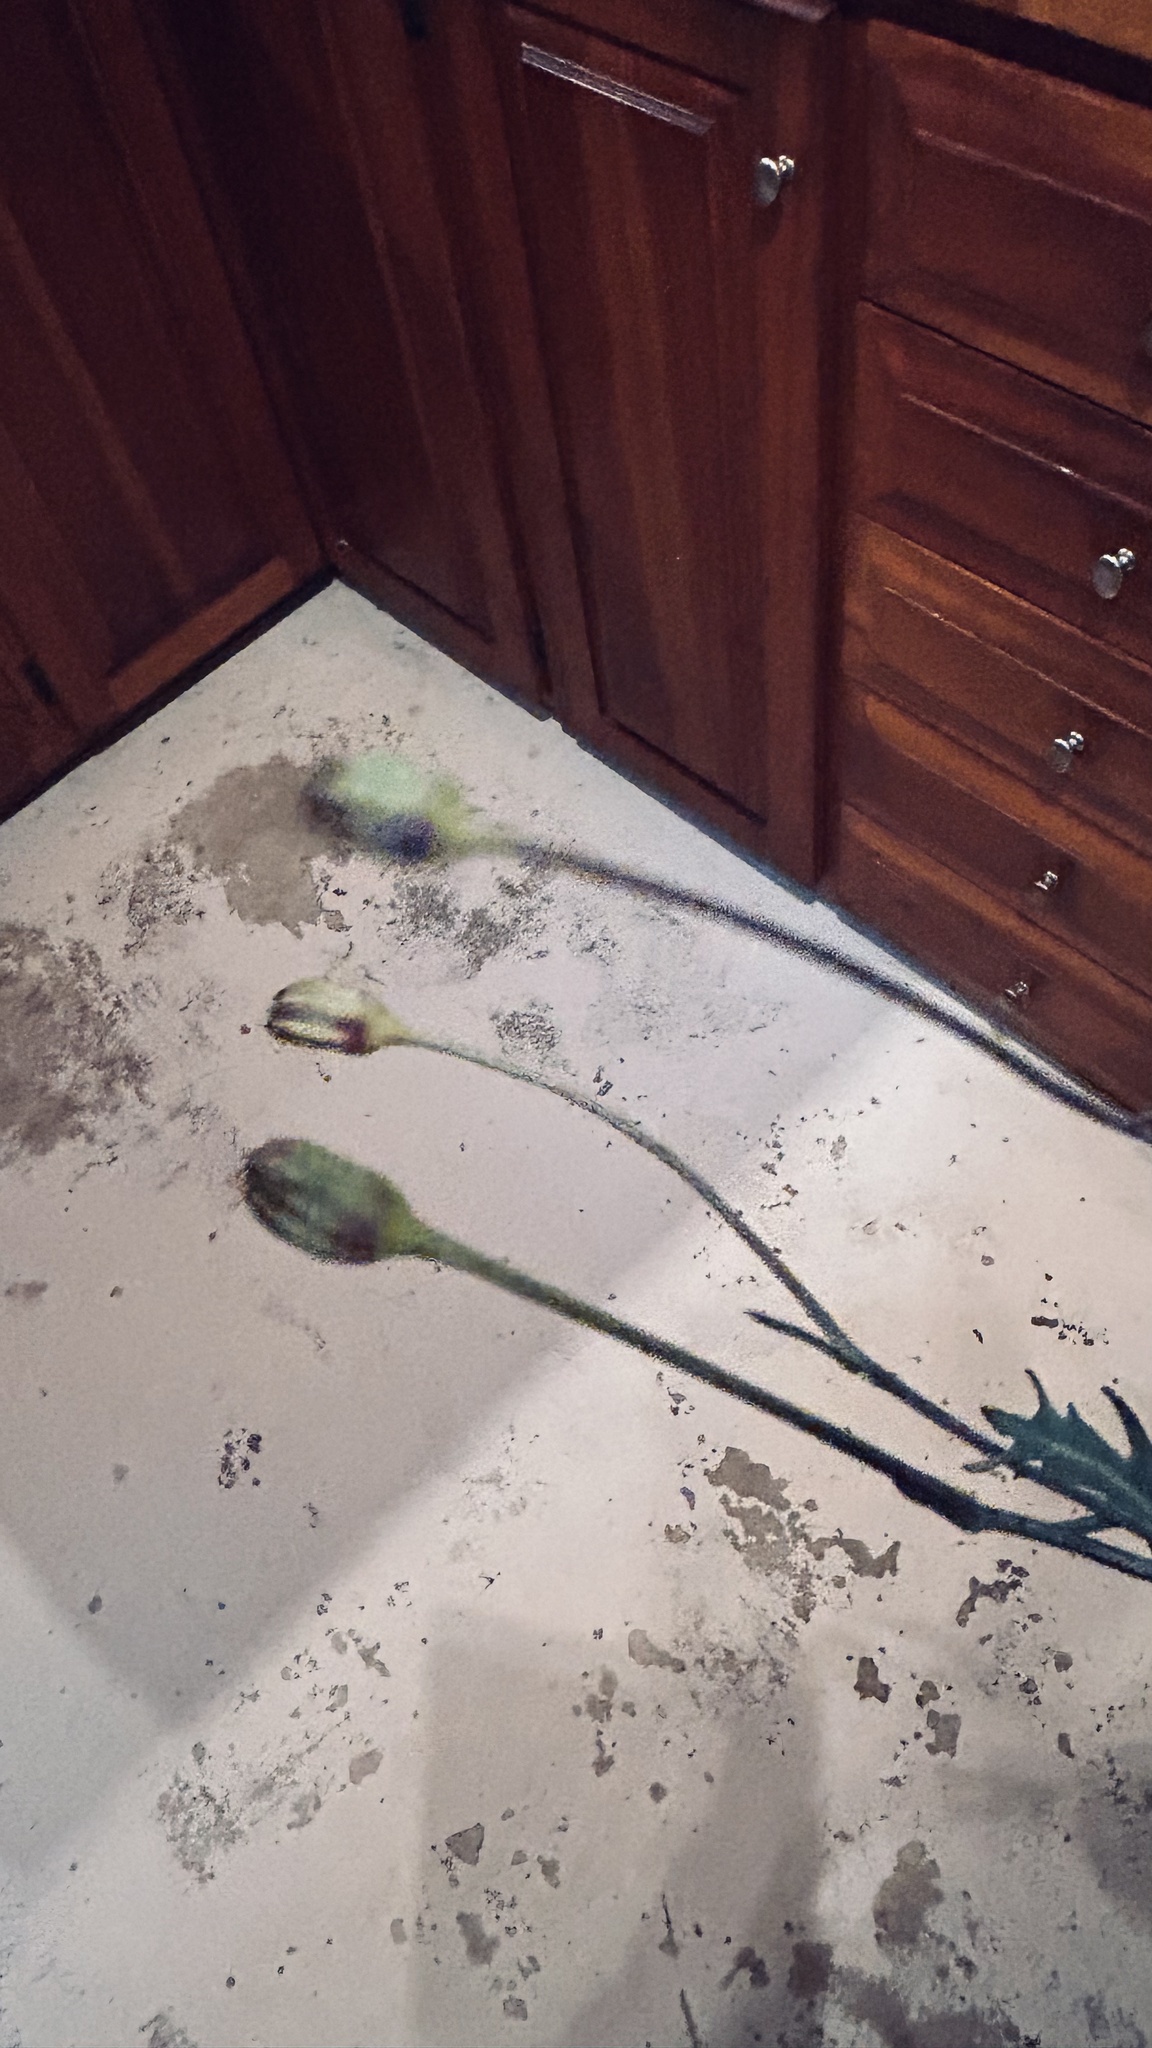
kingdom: Plantae
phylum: Tracheophyta
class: Magnoliopsida
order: Asterales
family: Asteraceae
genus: Othonna
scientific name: Othonna digitata
